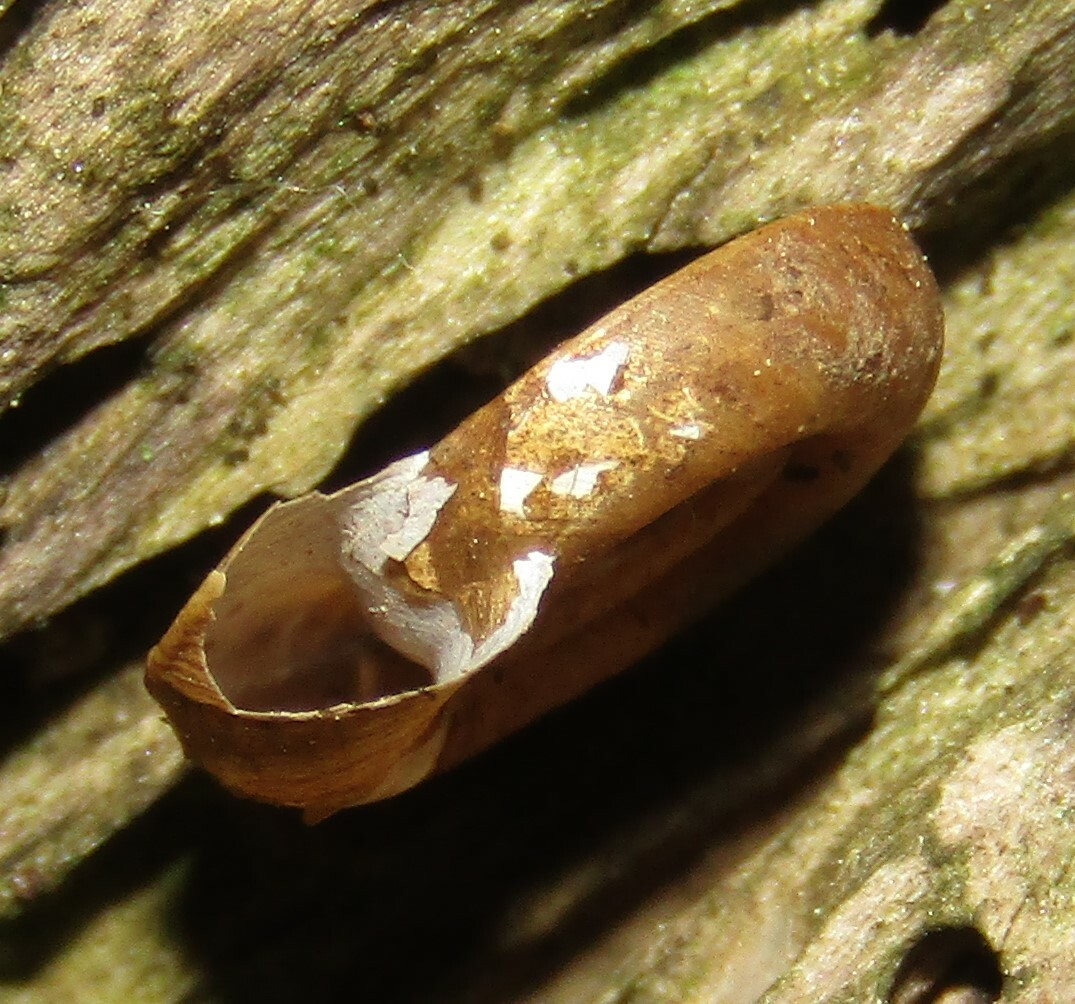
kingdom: Animalia
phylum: Mollusca
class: Gastropoda
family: Planorbidae
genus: Planorbis
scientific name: Planorbis planorbis
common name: Margined ramshorn
